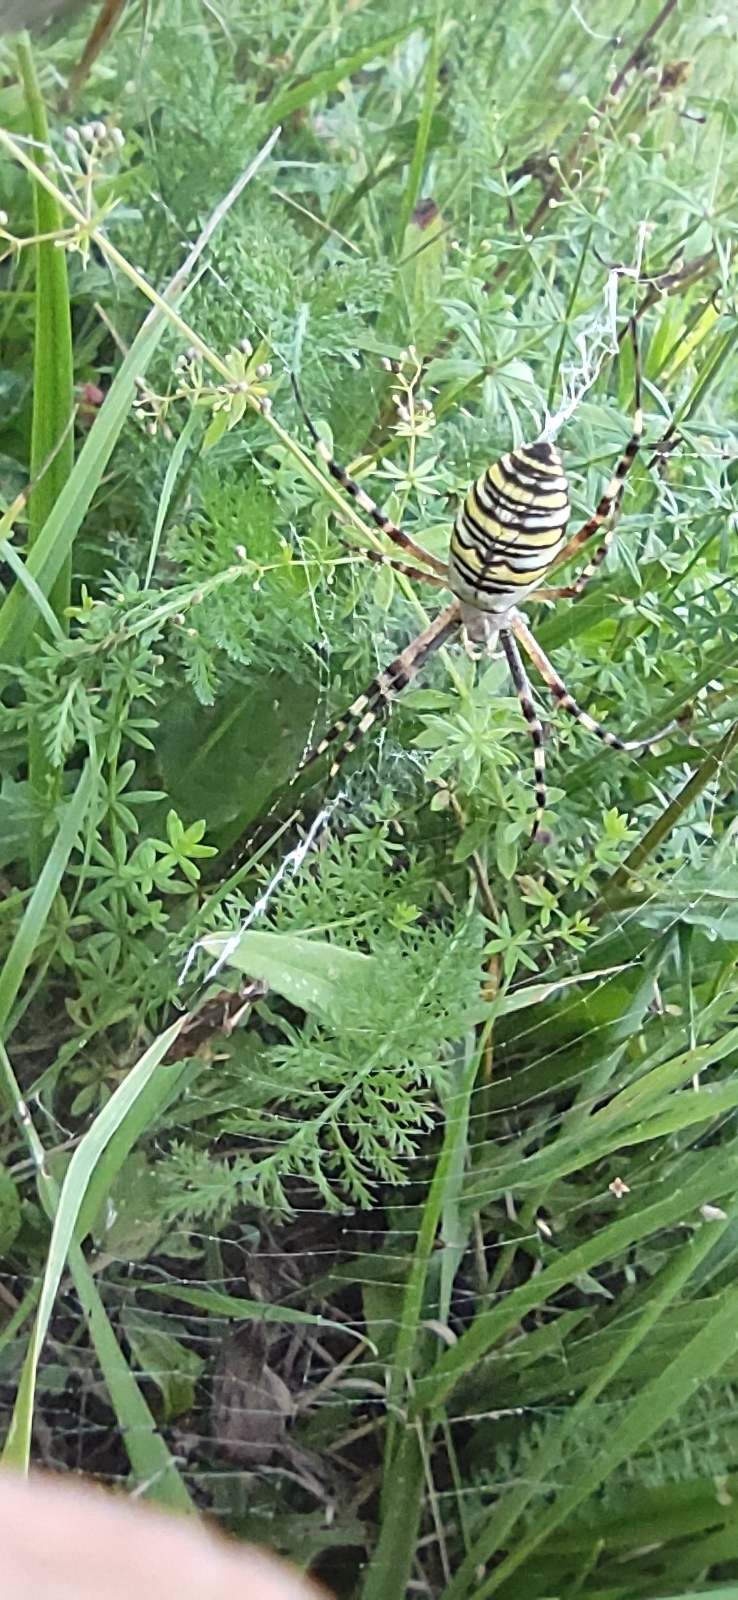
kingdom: Animalia
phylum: Arthropoda
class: Arachnida
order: Araneae
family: Araneidae
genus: Argiope
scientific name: Argiope bruennichi
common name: Wasp spider
